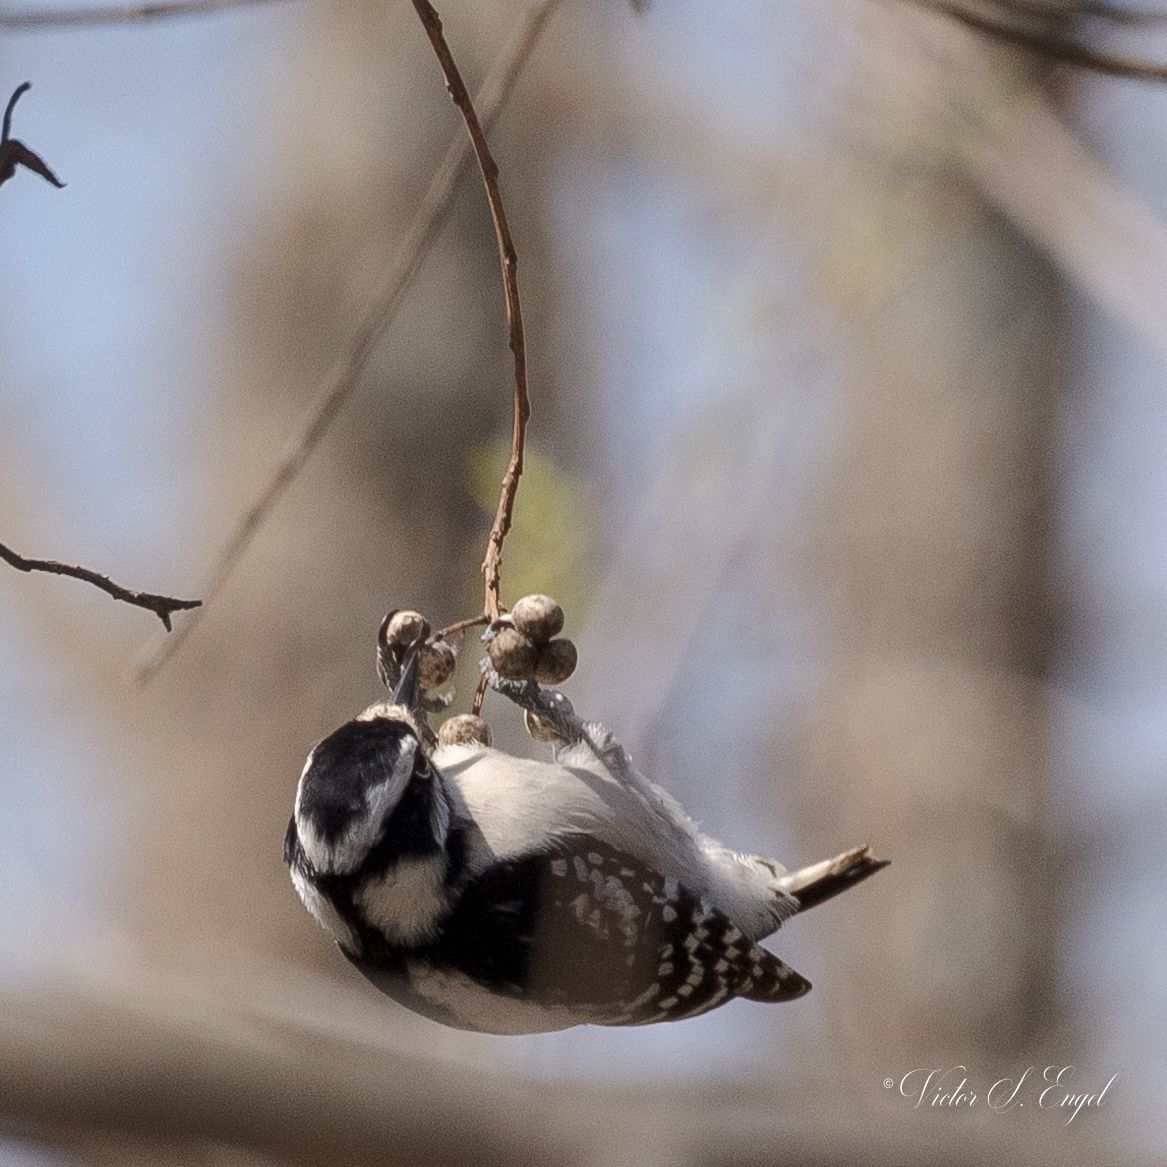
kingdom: Animalia
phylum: Chordata
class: Aves
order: Piciformes
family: Picidae
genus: Dryobates
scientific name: Dryobates pubescens
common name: Downy woodpecker
